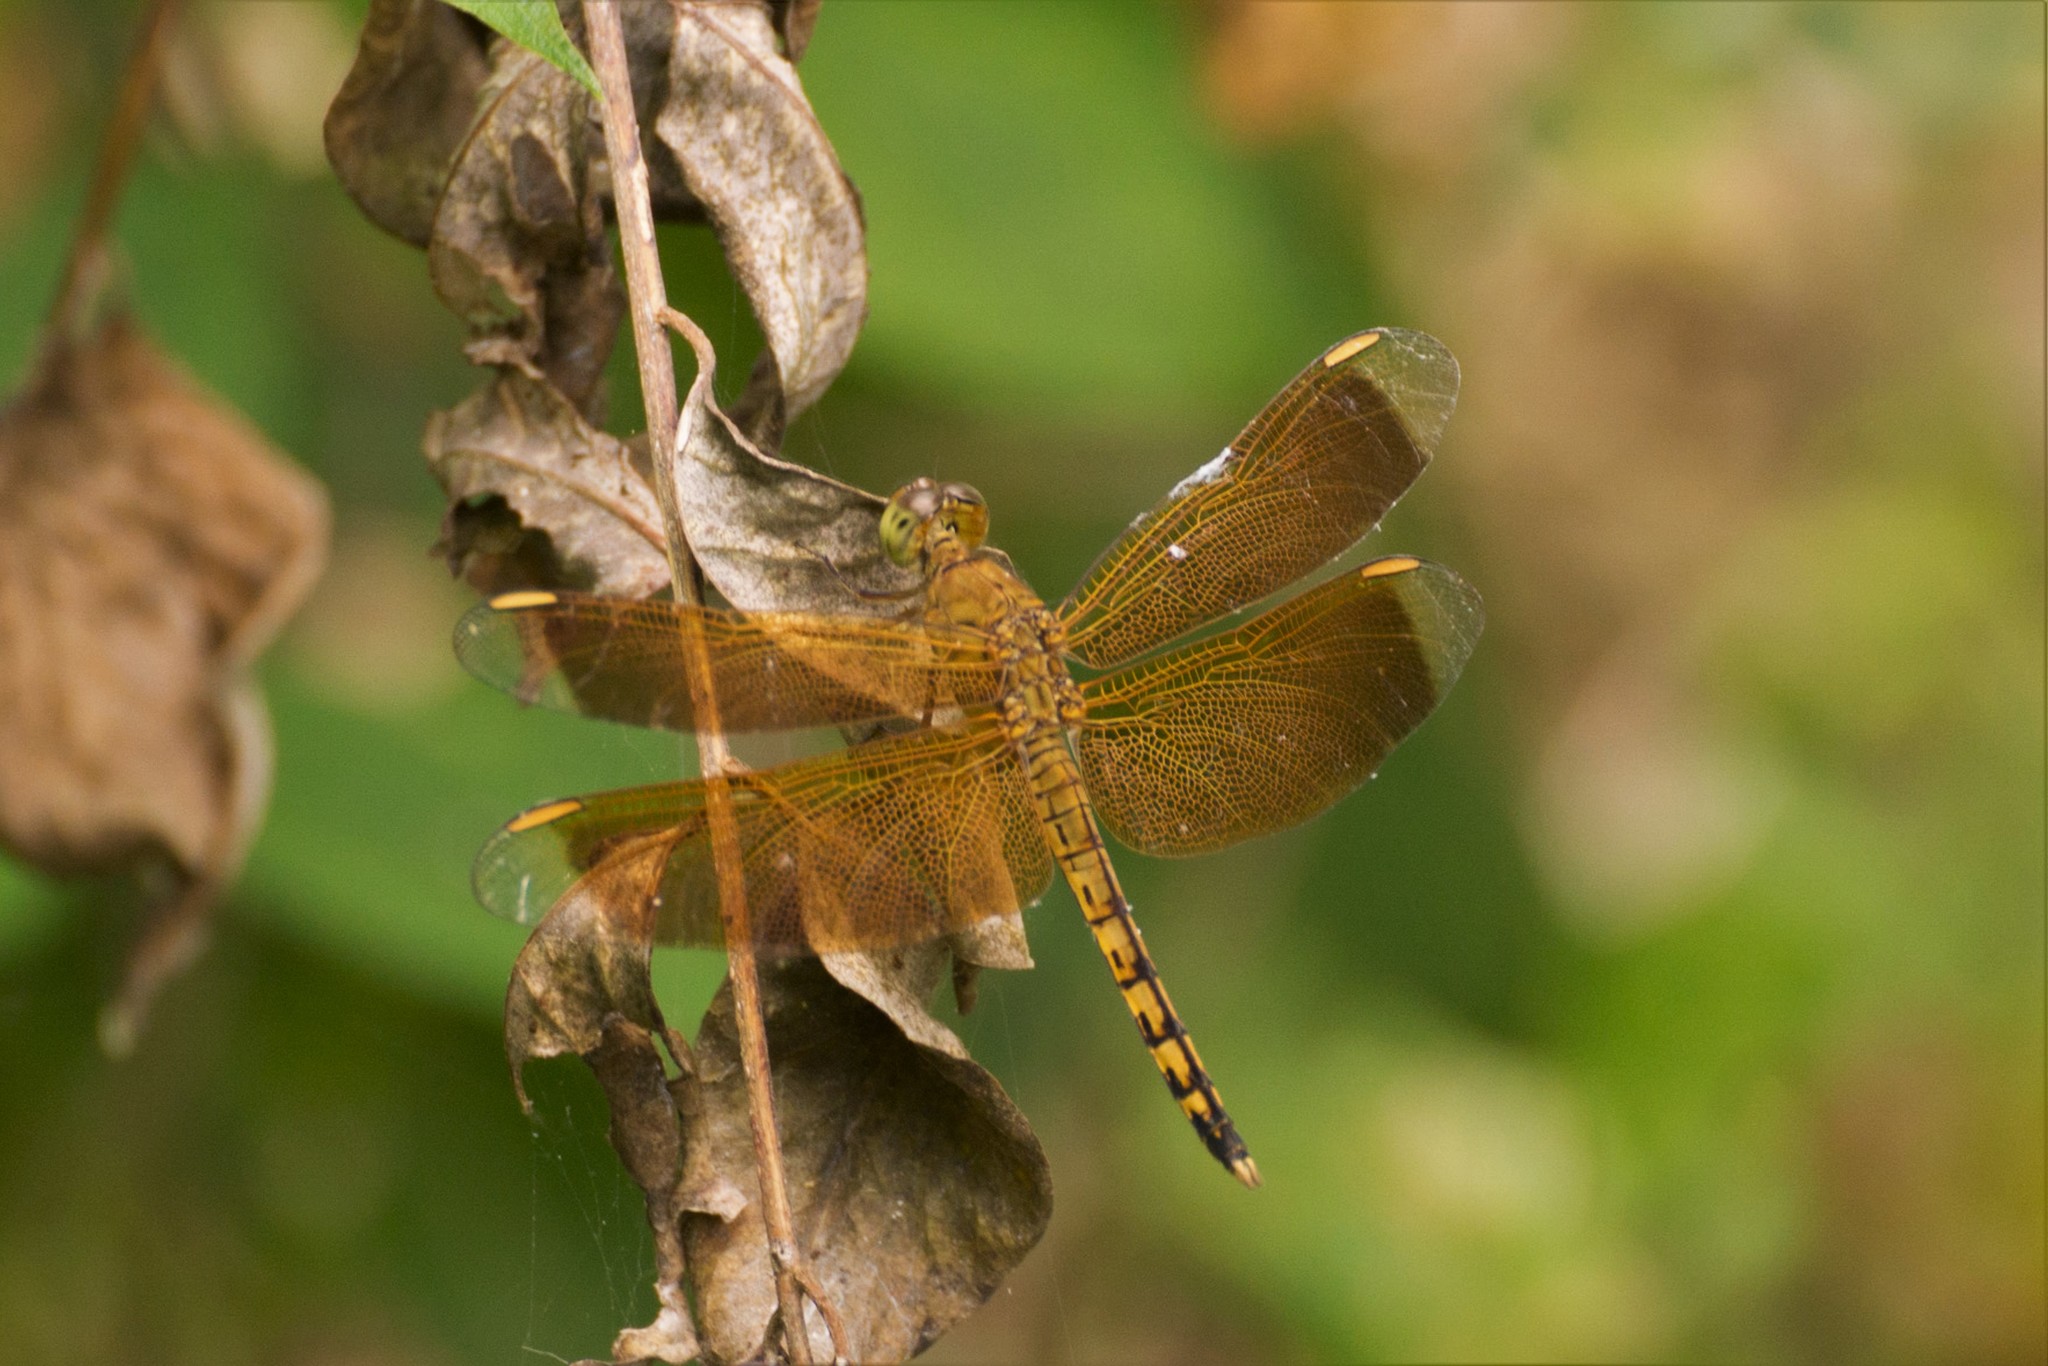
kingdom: Animalia
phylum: Arthropoda
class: Insecta
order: Odonata
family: Libellulidae
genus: Neurothemis
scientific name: Neurothemis terminata
